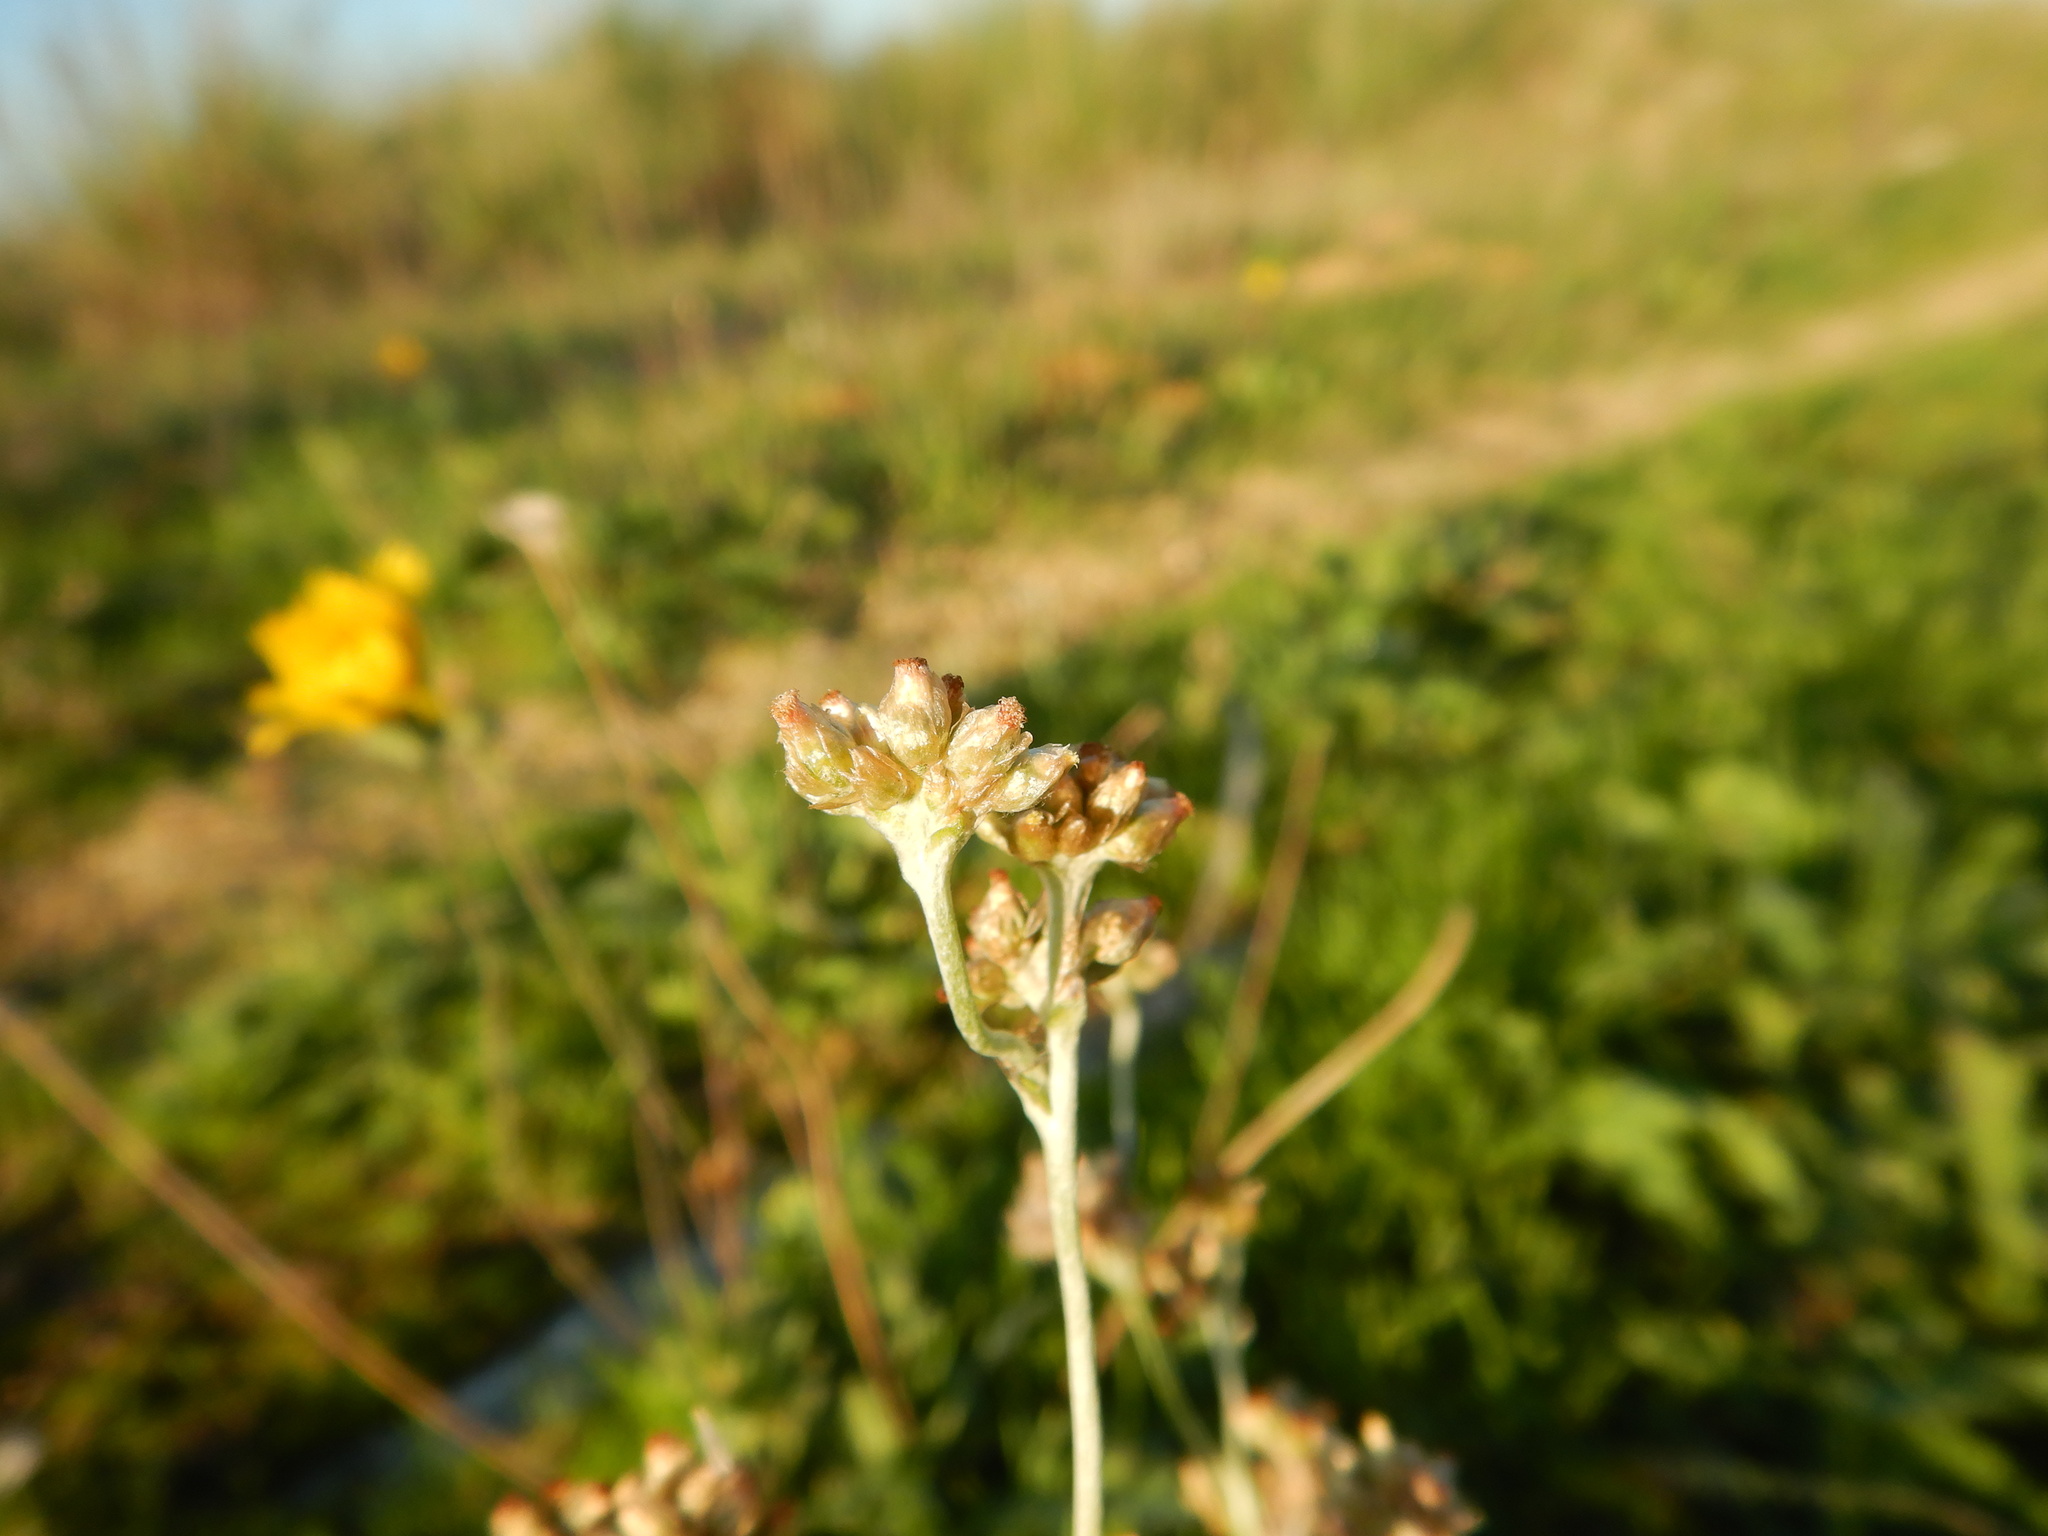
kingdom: Plantae
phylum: Tracheophyta
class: Magnoliopsida
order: Asterales
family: Asteraceae
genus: Helichrysum
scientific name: Helichrysum luteoalbum
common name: Daisy
